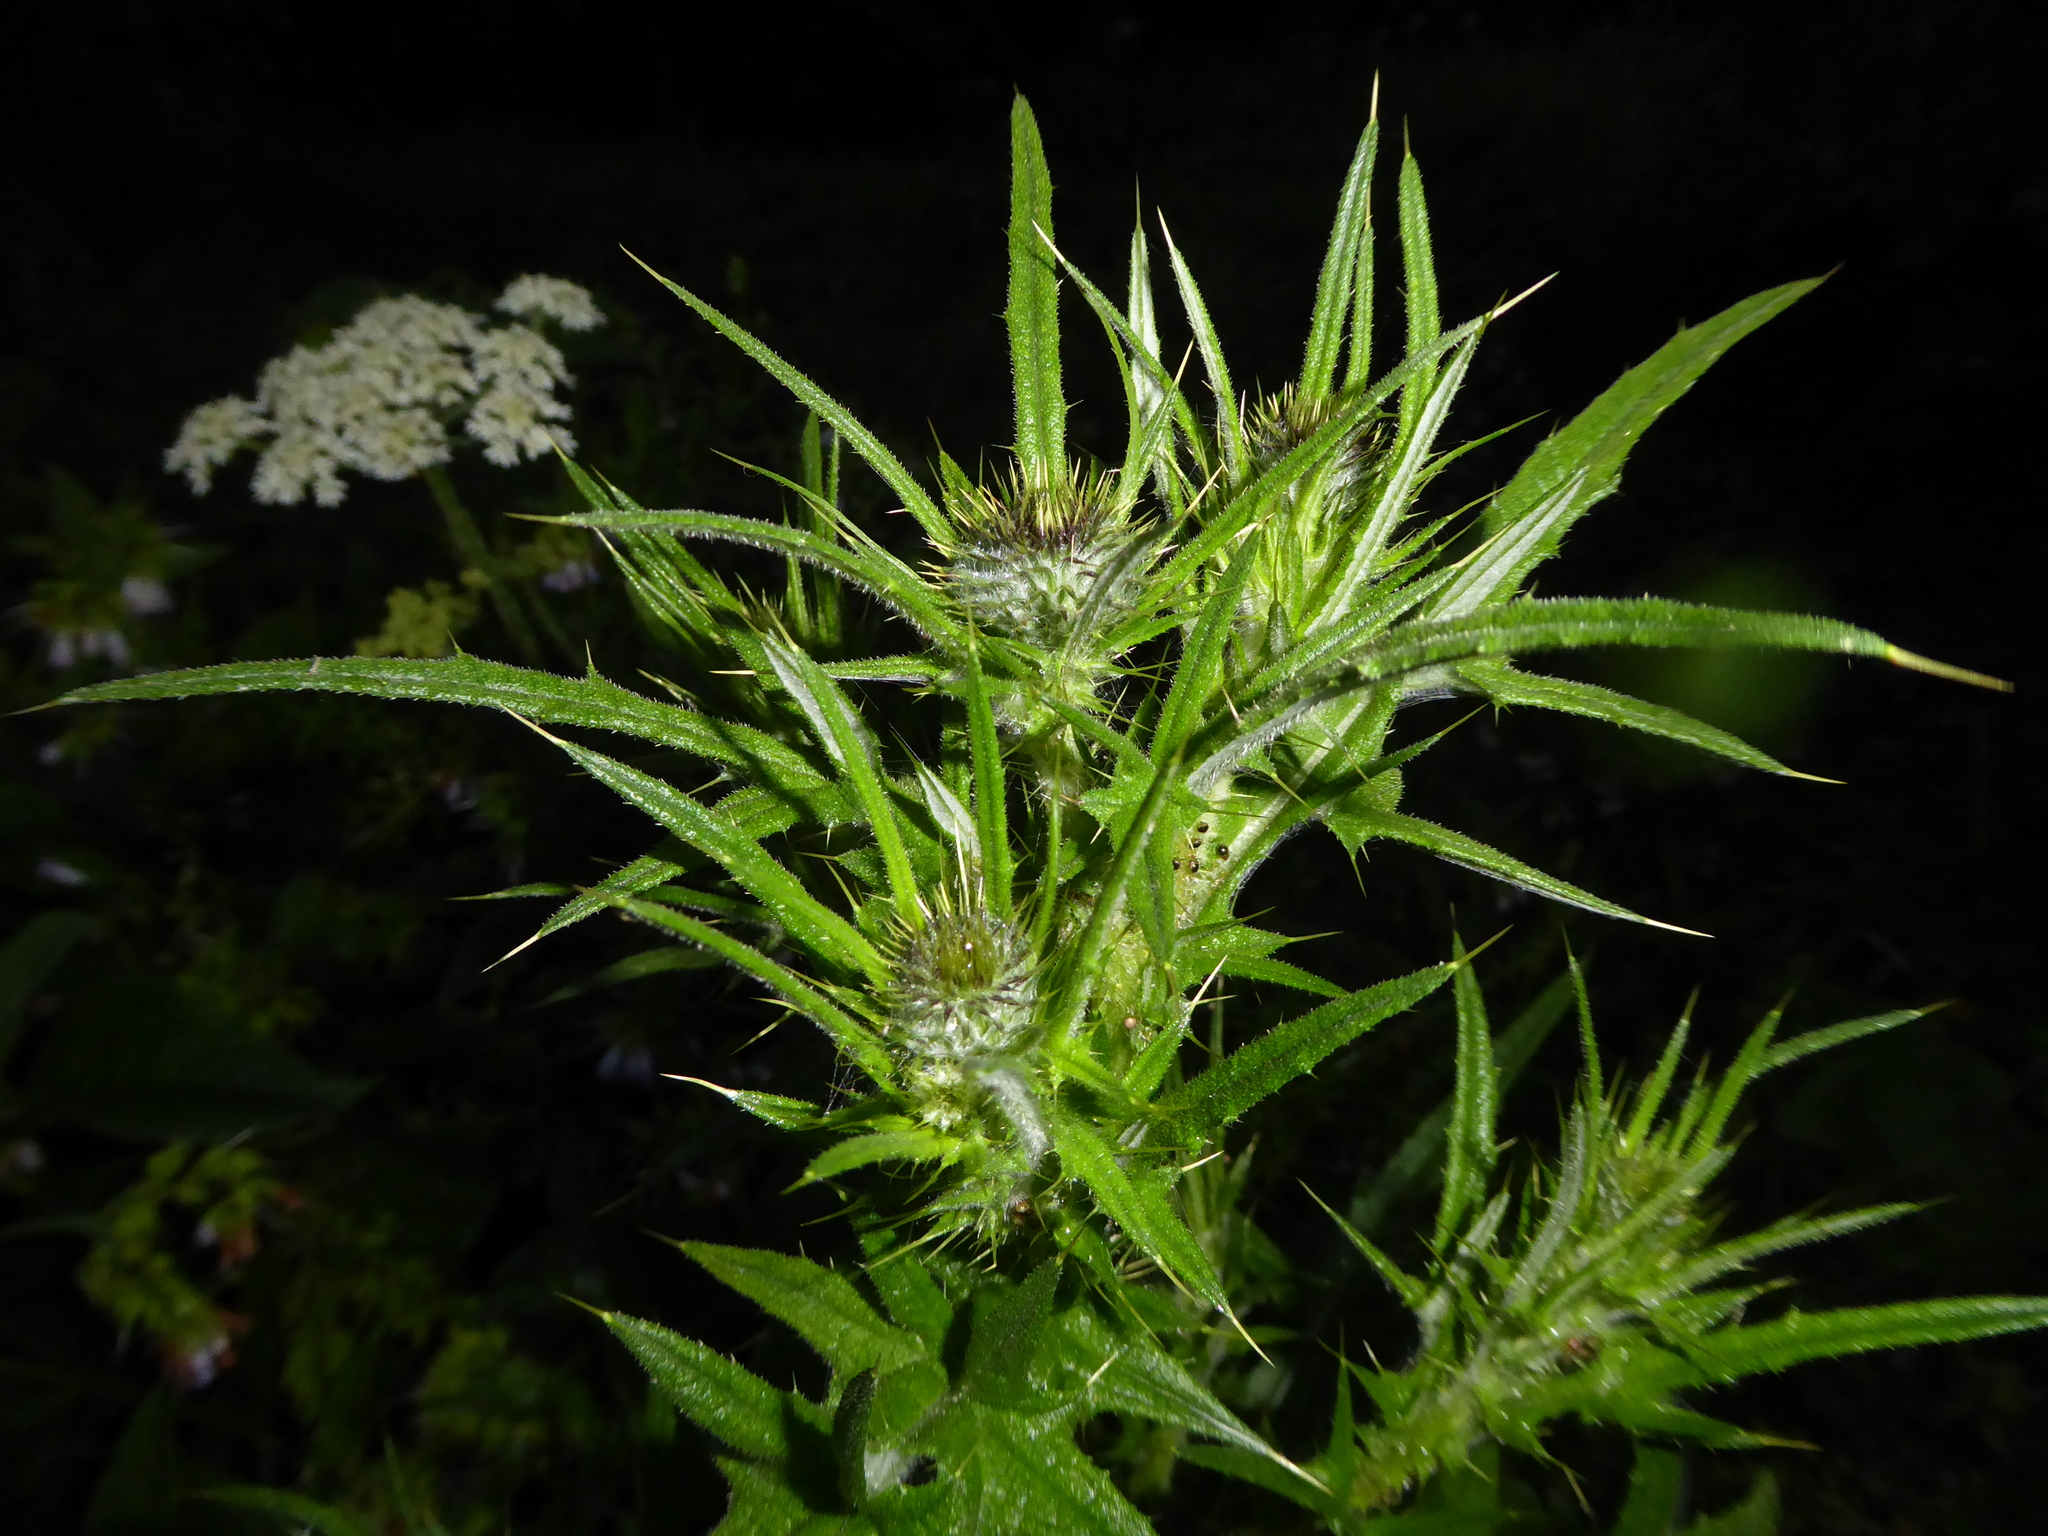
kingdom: Plantae
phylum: Tracheophyta
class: Magnoliopsida
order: Asterales
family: Asteraceae
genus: Cirsium
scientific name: Cirsium vulgare
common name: Bull thistle
